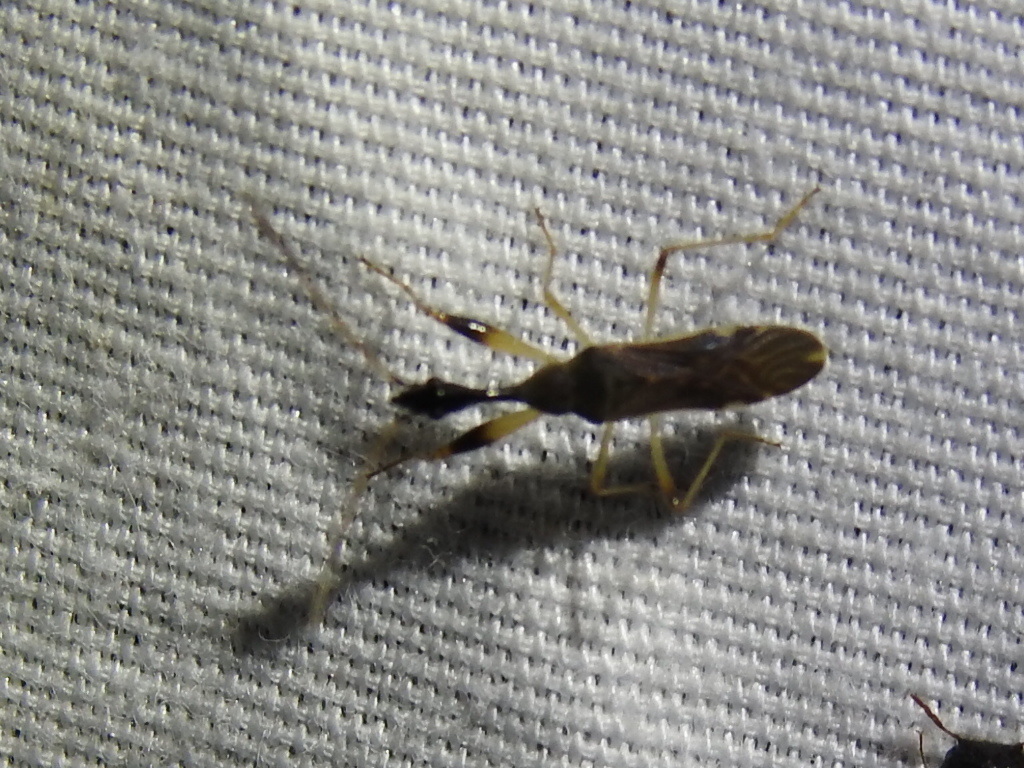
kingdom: Animalia
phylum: Arthropoda
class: Insecta
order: Hemiptera
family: Rhyparochromidae
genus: Myodocha
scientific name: Myodocha serripes
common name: Long-necked seed bug
